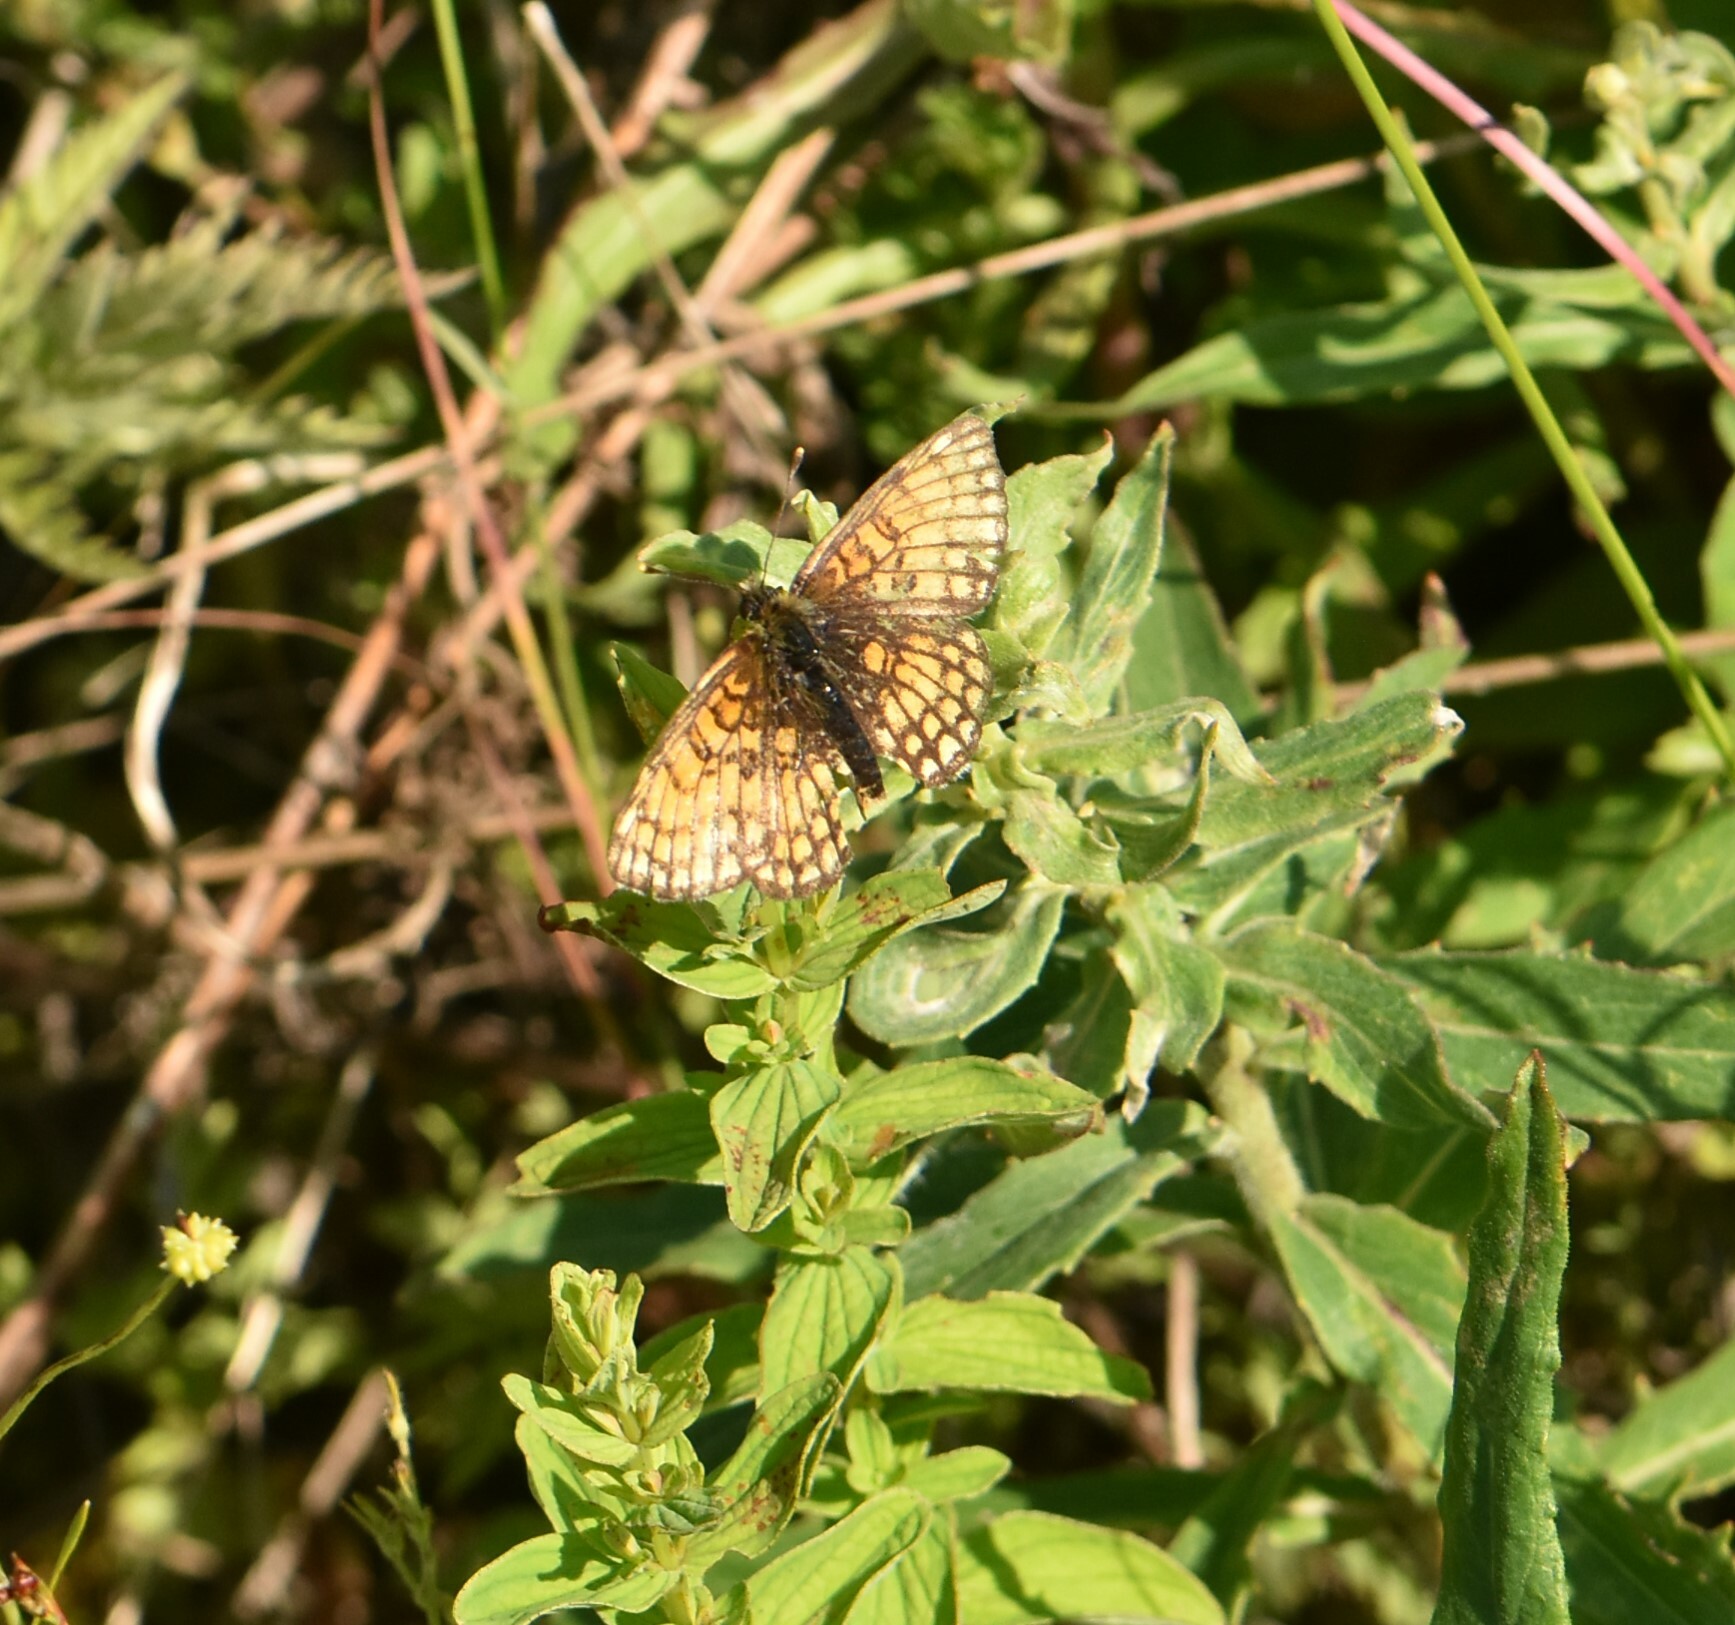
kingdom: Animalia
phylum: Arthropoda
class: Insecta
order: Lepidoptera
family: Nymphalidae
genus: Melitaea
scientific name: Melitaea athalia
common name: Heath fritillary
